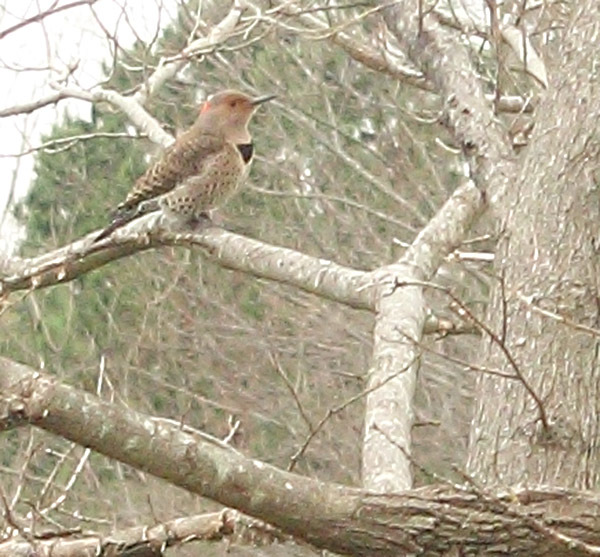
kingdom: Animalia
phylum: Chordata
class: Aves
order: Piciformes
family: Picidae
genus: Colaptes
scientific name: Colaptes auratus
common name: Northern flicker
